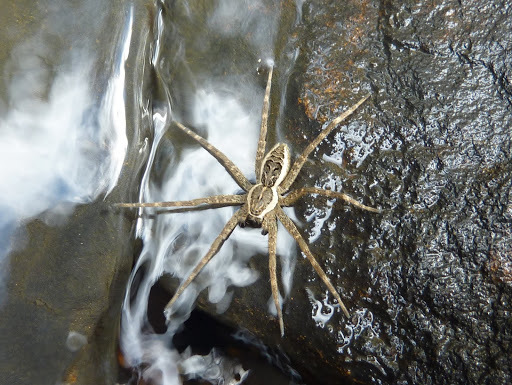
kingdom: Animalia
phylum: Arthropoda
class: Arachnida
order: Araneae
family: Pisauridae
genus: Dolomedes
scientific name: Dolomedes scriptus
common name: Striped fishing spider
